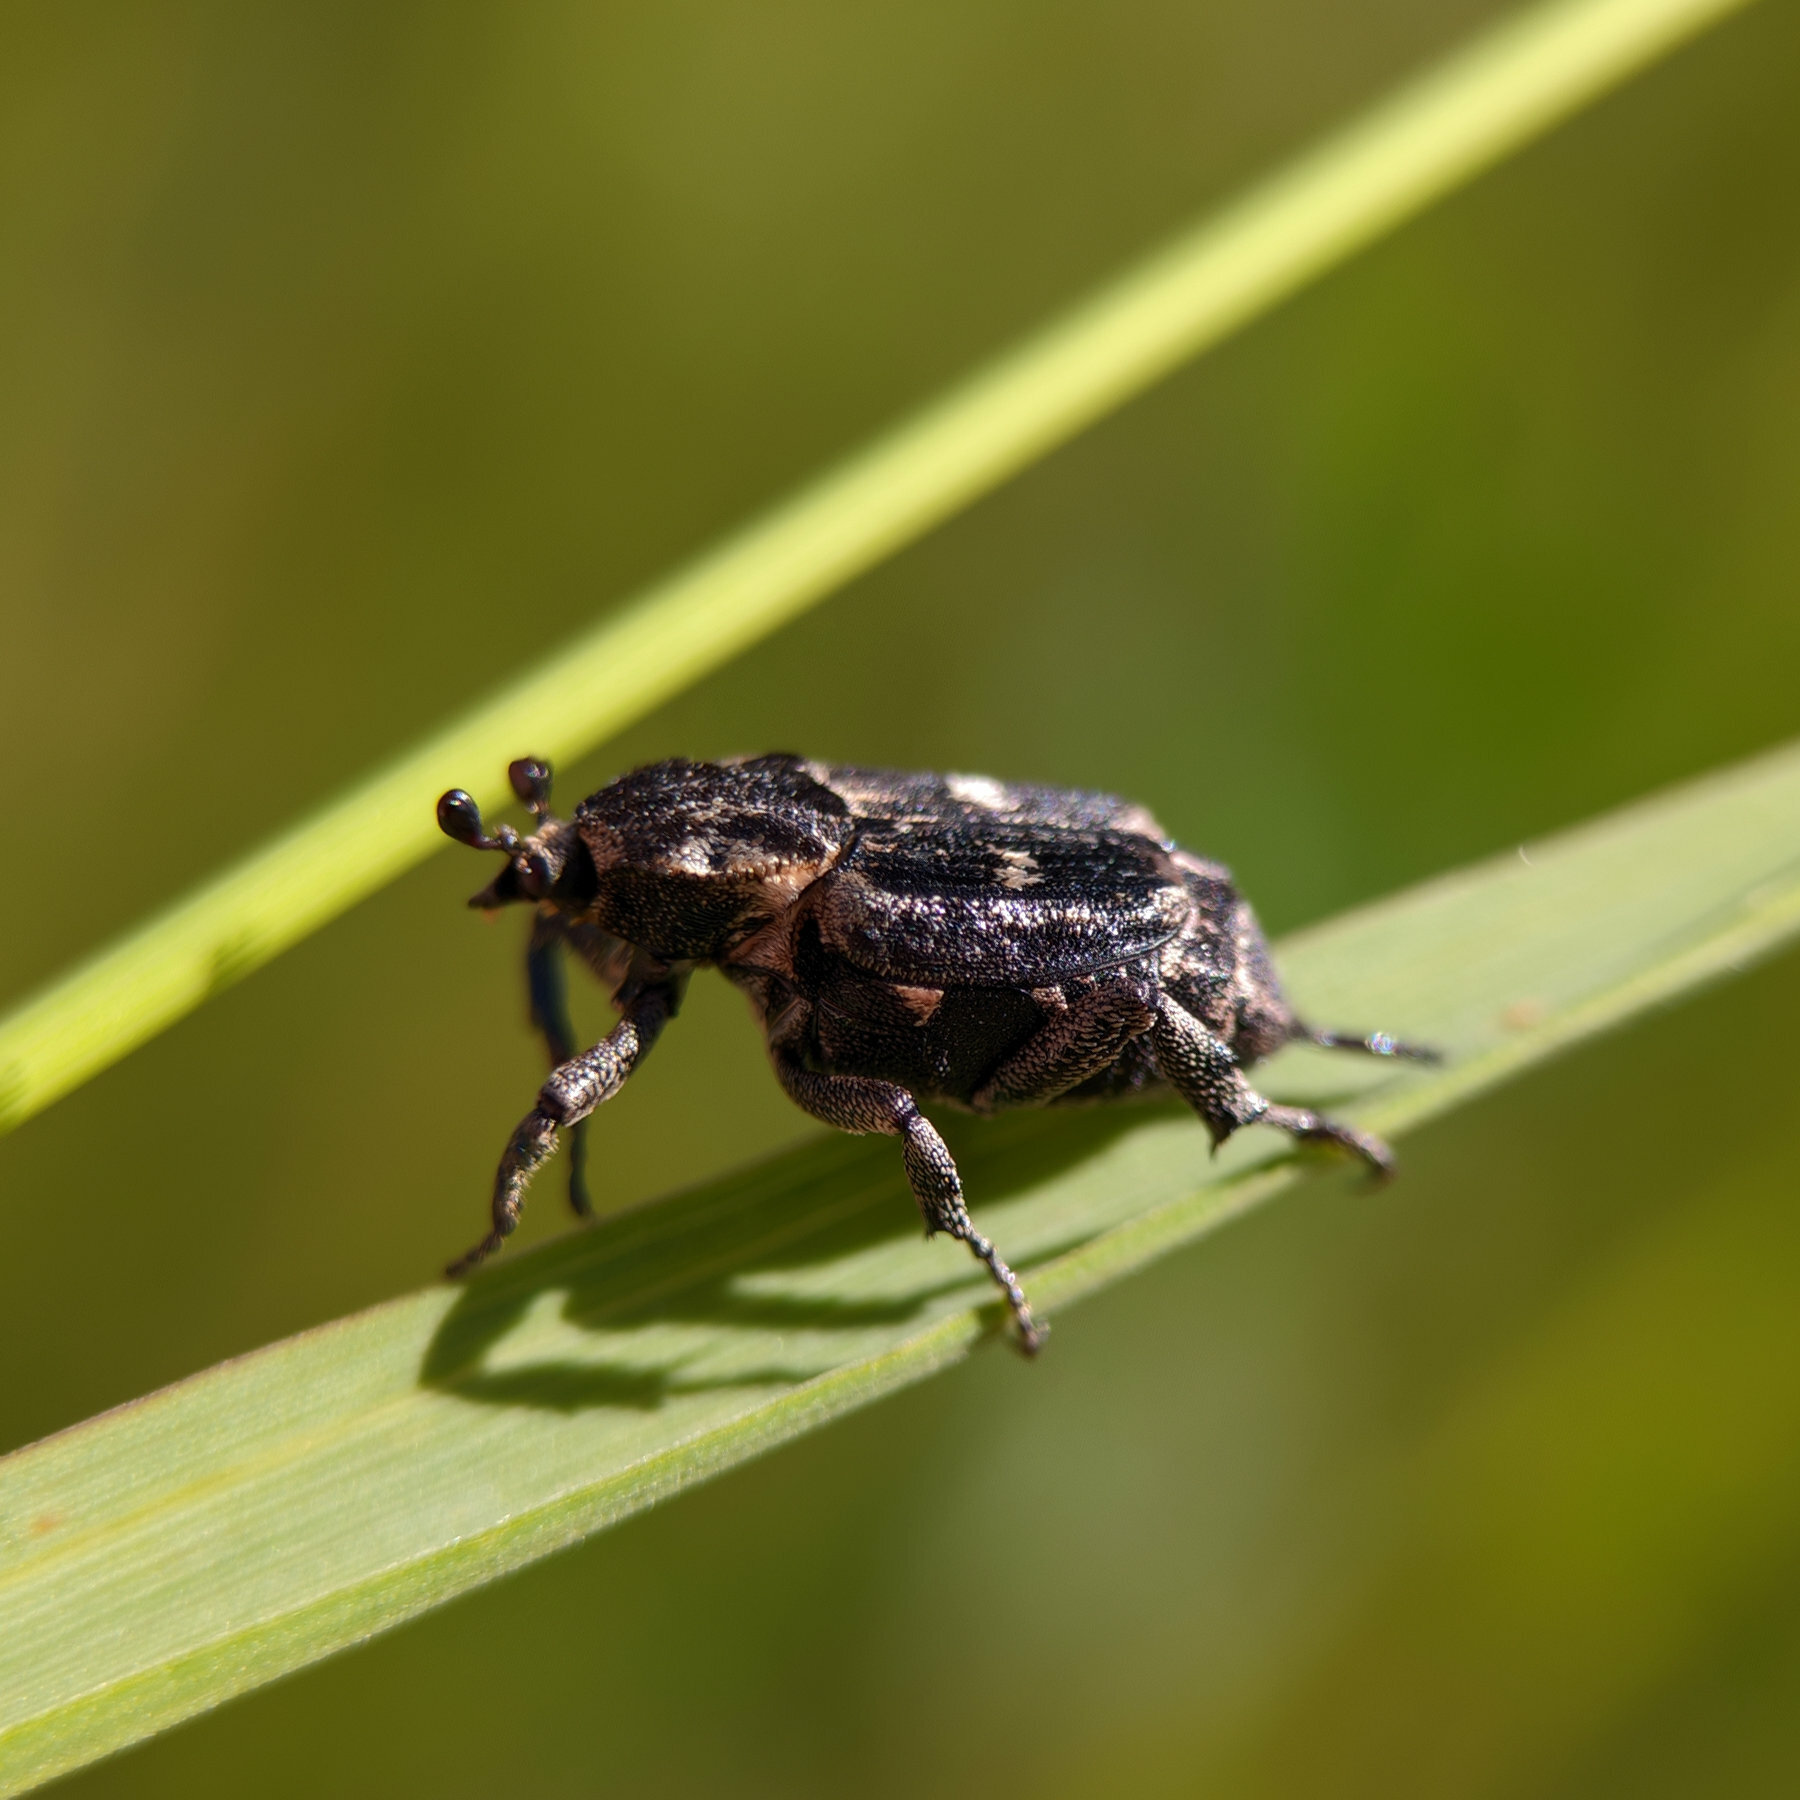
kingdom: Animalia
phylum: Arthropoda
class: Insecta
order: Coleoptera
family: Scarabaeidae
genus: Valgus
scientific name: Valgus hemipterus
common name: Bug flower chafer
